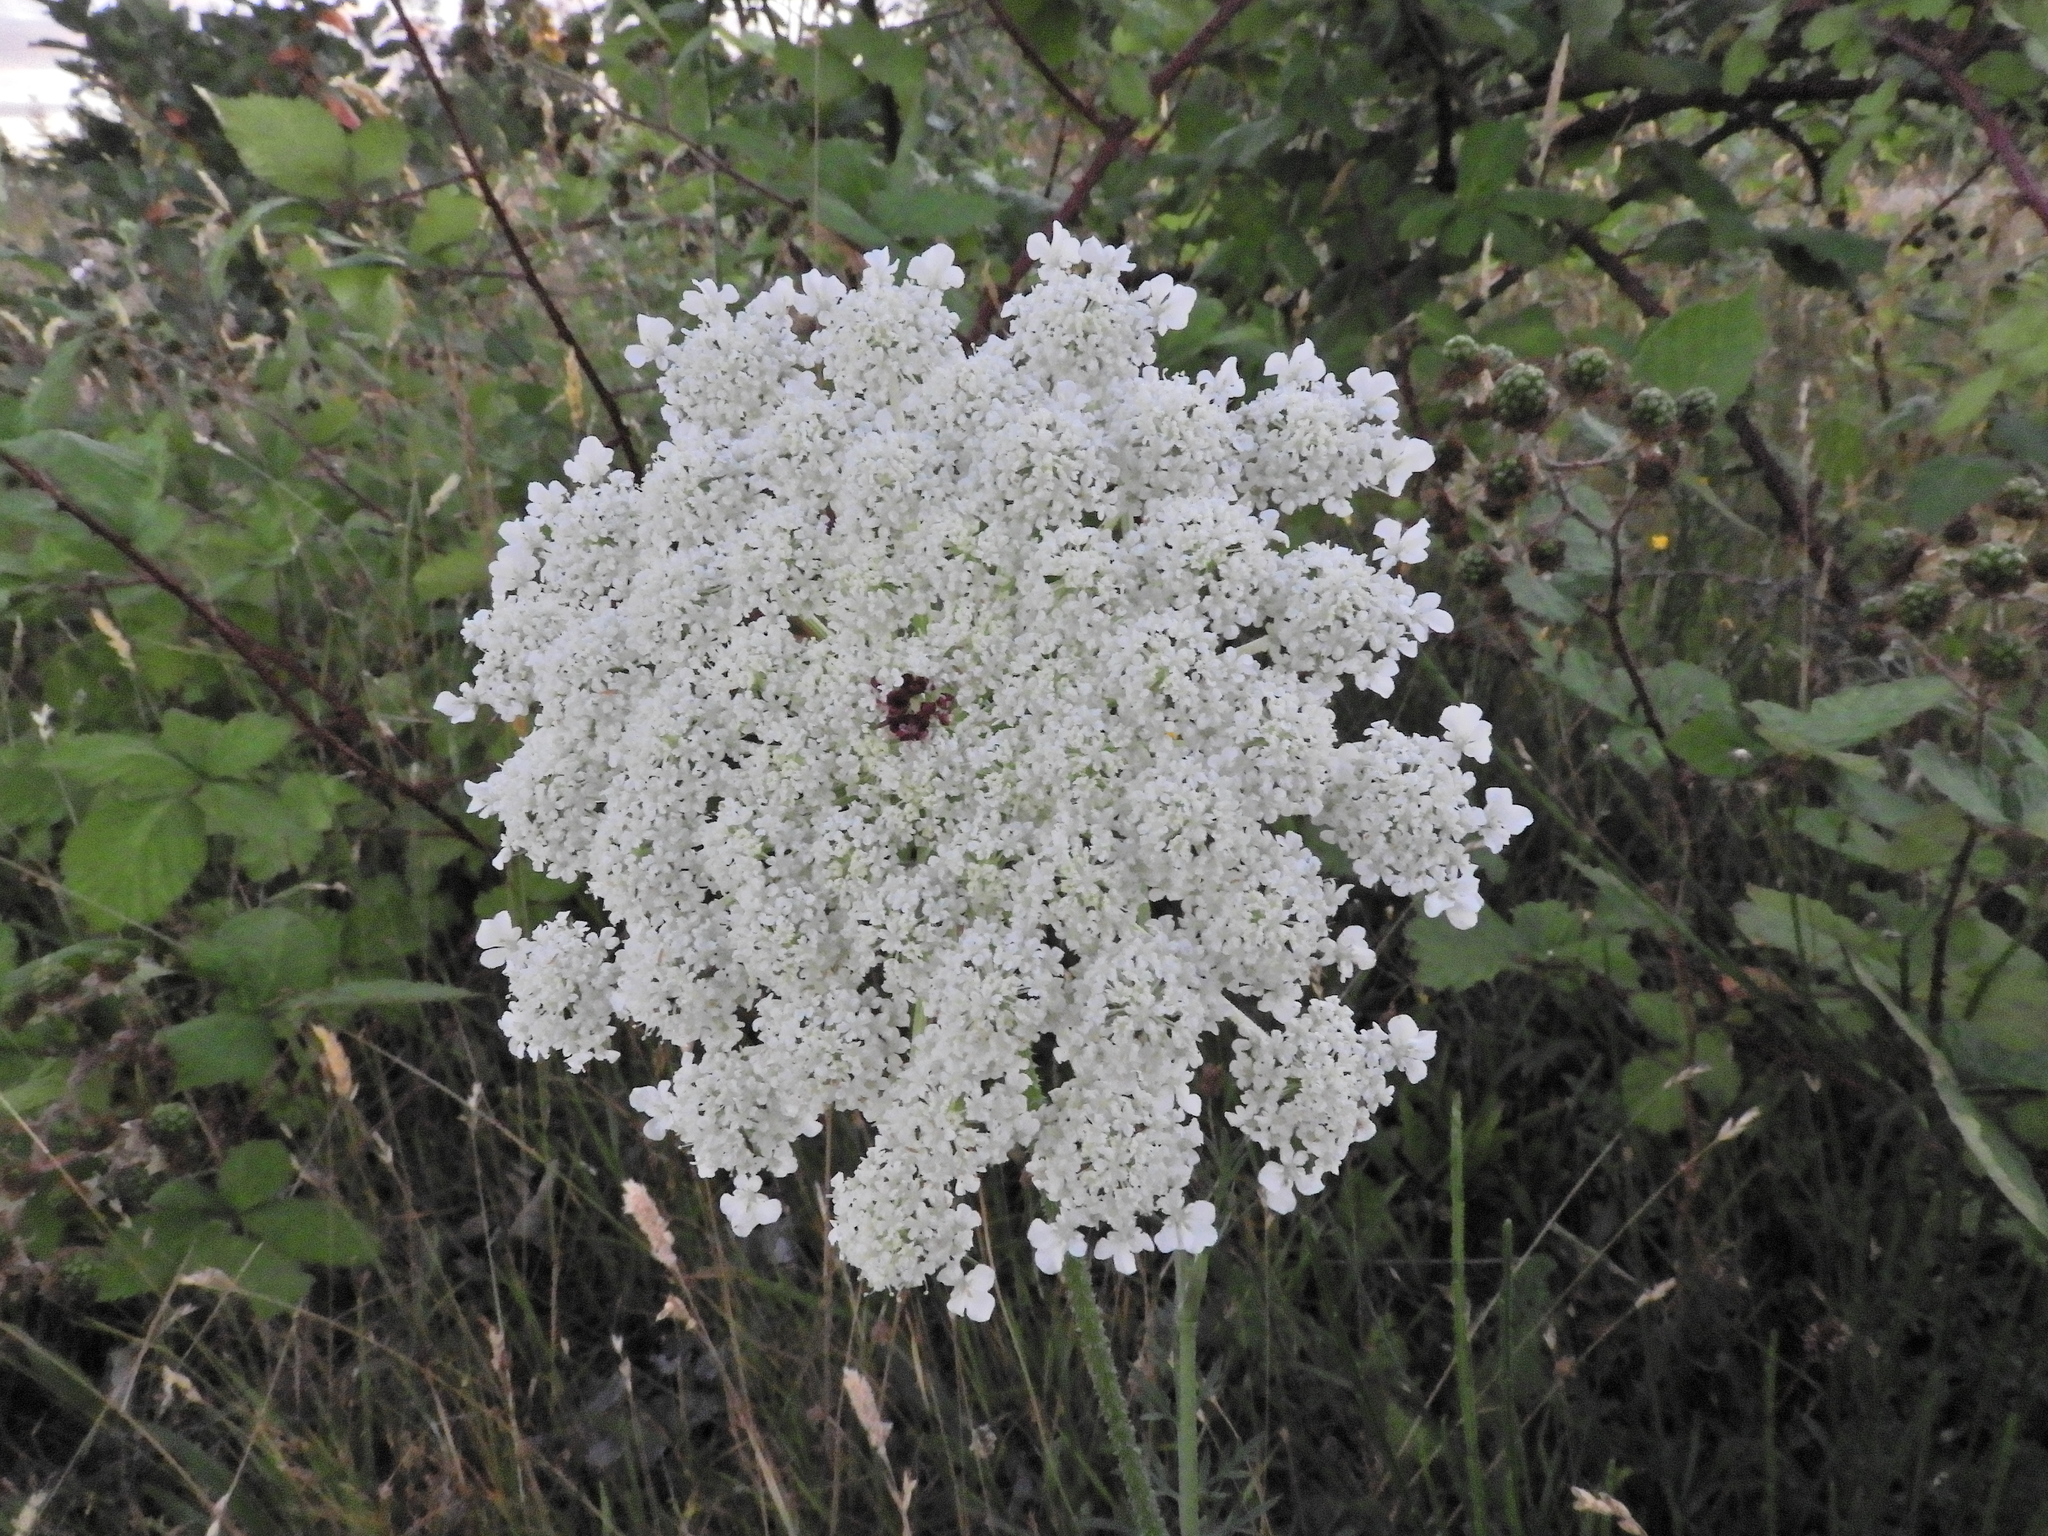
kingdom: Plantae
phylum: Tracheophyta
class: Magnoliopsida
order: Apiales
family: Apiaceae
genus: Daucus
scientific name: Daucus carota
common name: Wild carrot
